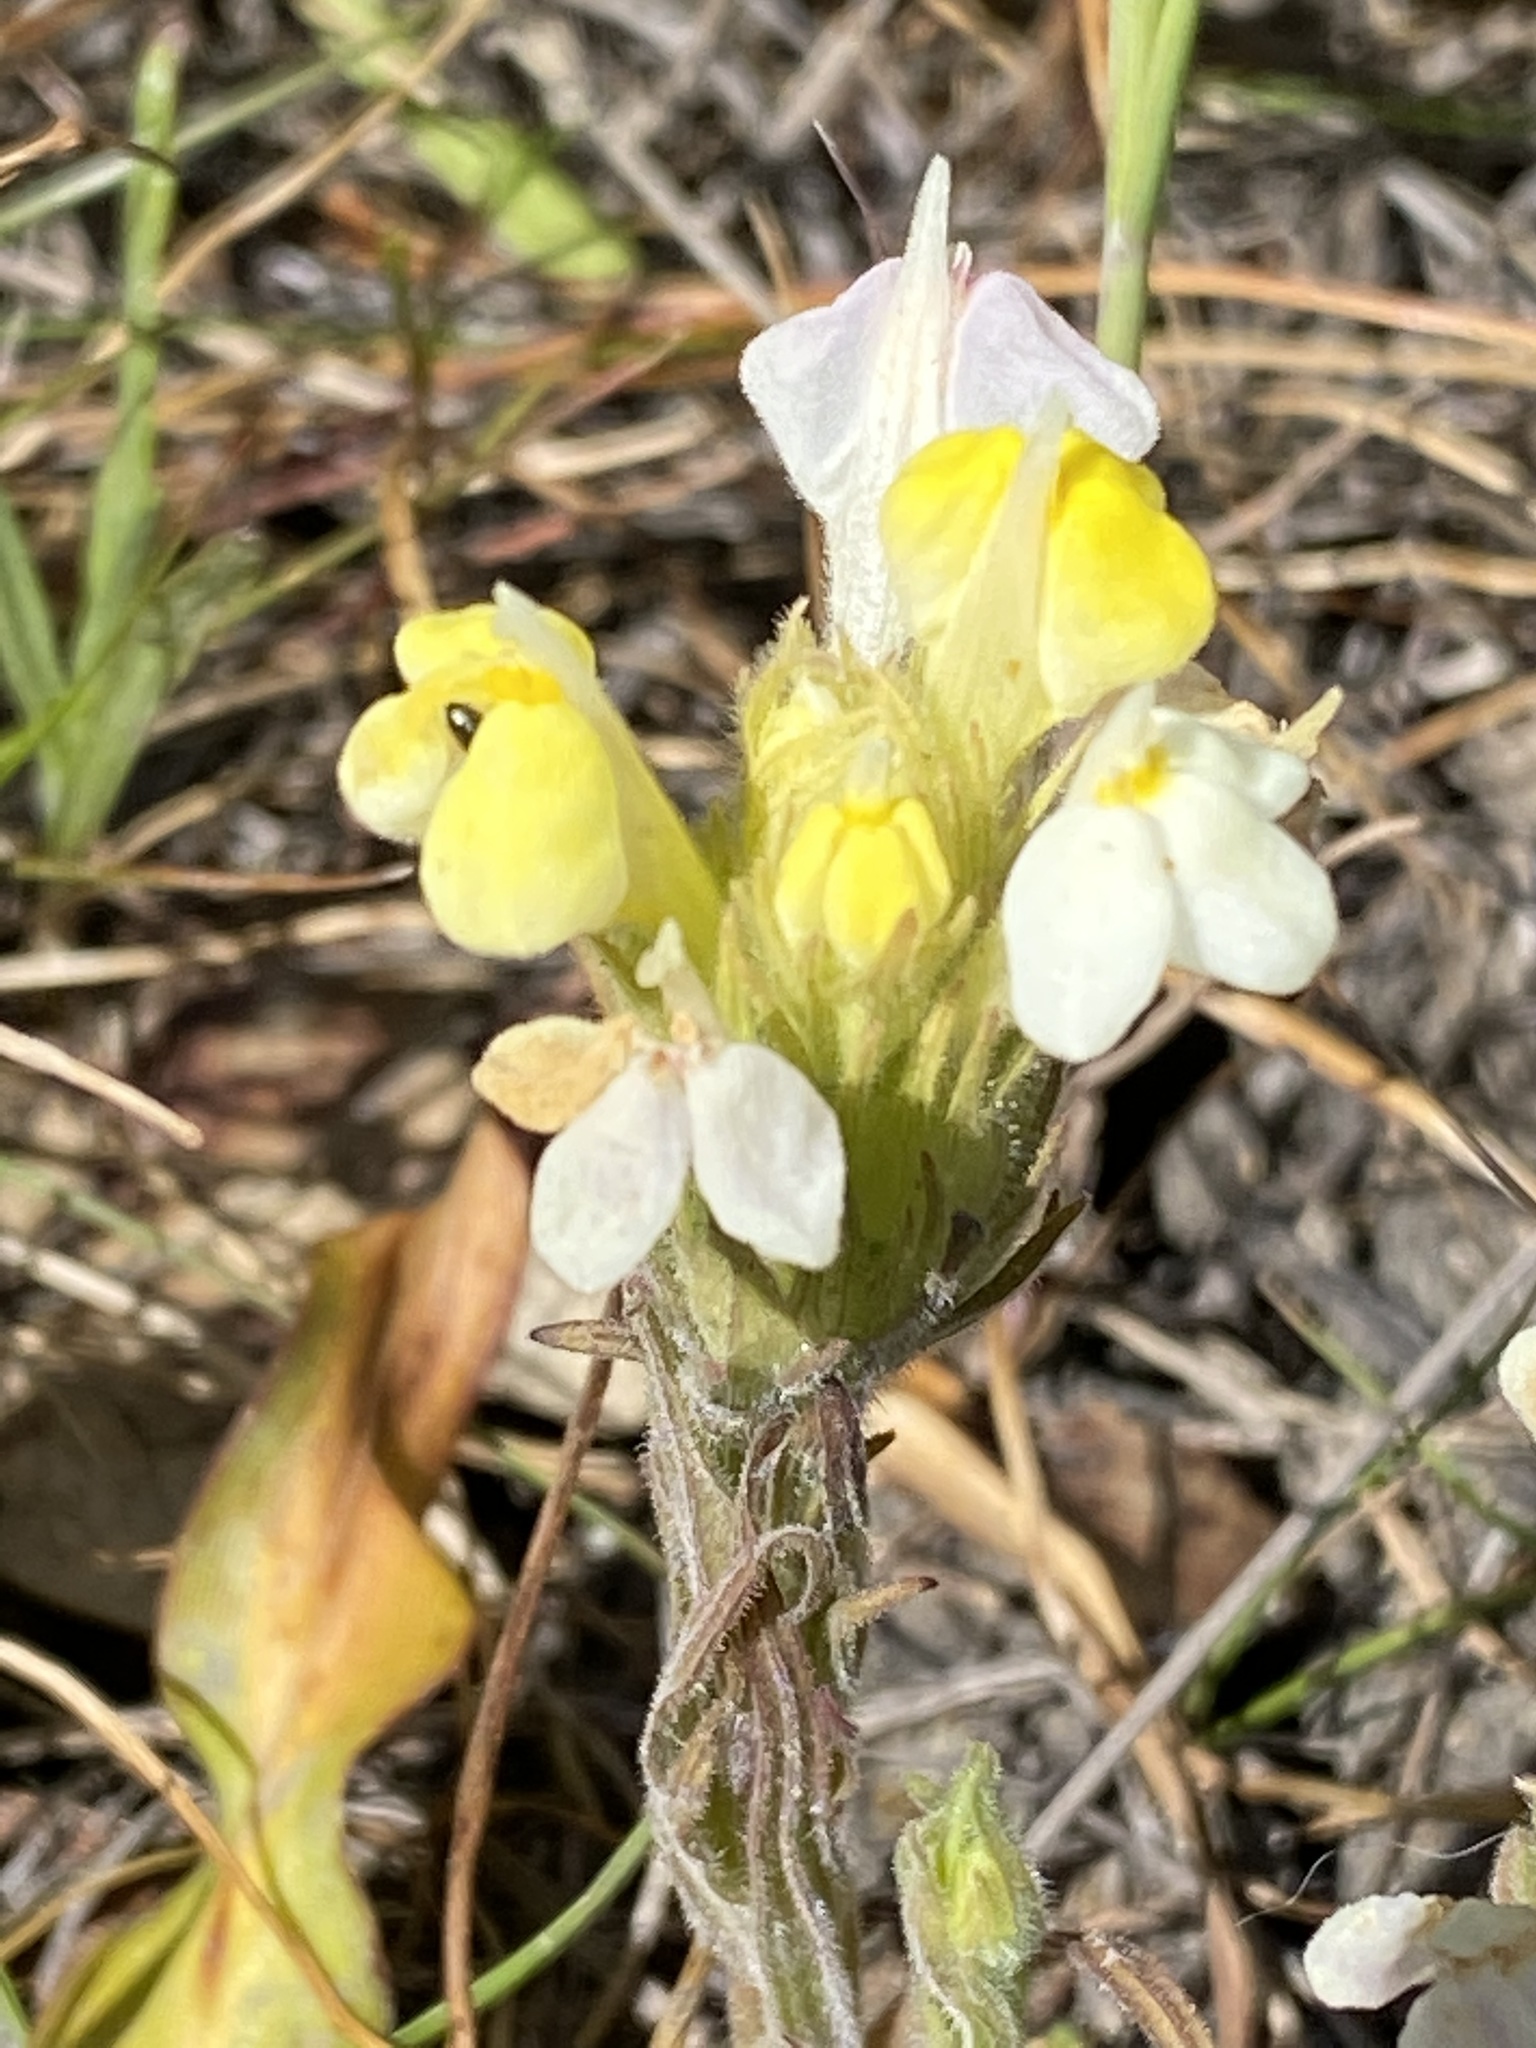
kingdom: Plantae
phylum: Tracheophyta
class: Magnoliopsida
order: Lamiales
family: Orobanchaceae
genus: Castilleja
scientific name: Castilleja rubicundula
